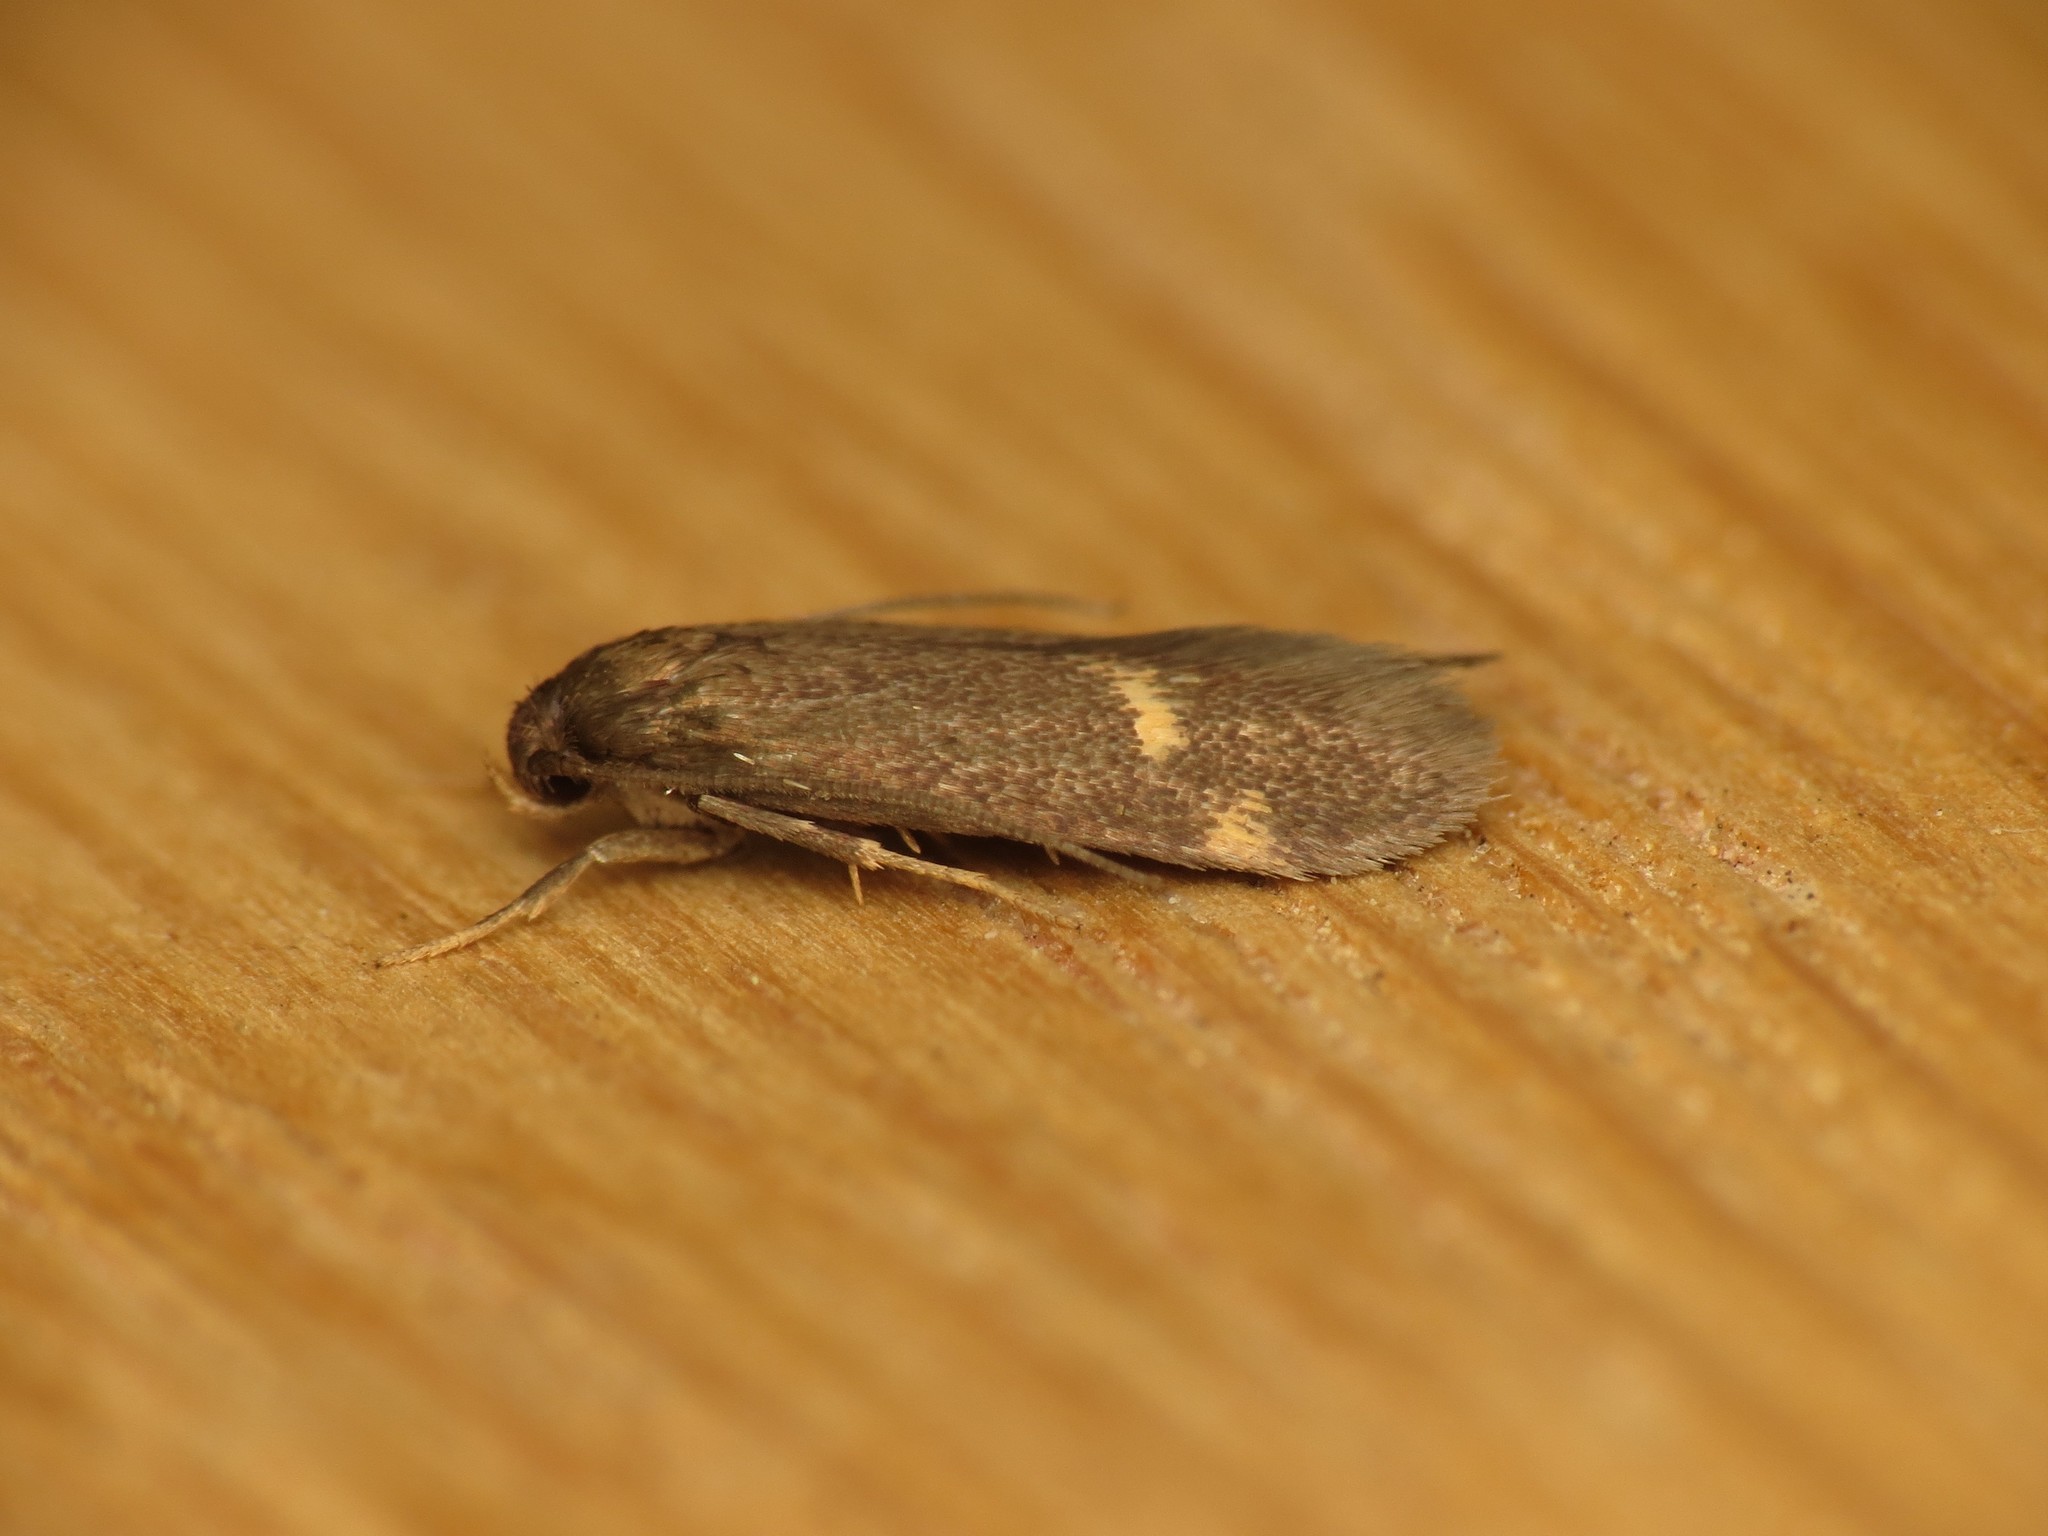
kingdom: Animalia
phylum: Arthropoda
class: Insecta
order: Lepidoptera
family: Oecophoridae
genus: Borkhausenia
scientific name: Borkhausenia minutella
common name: Thatch tubic
